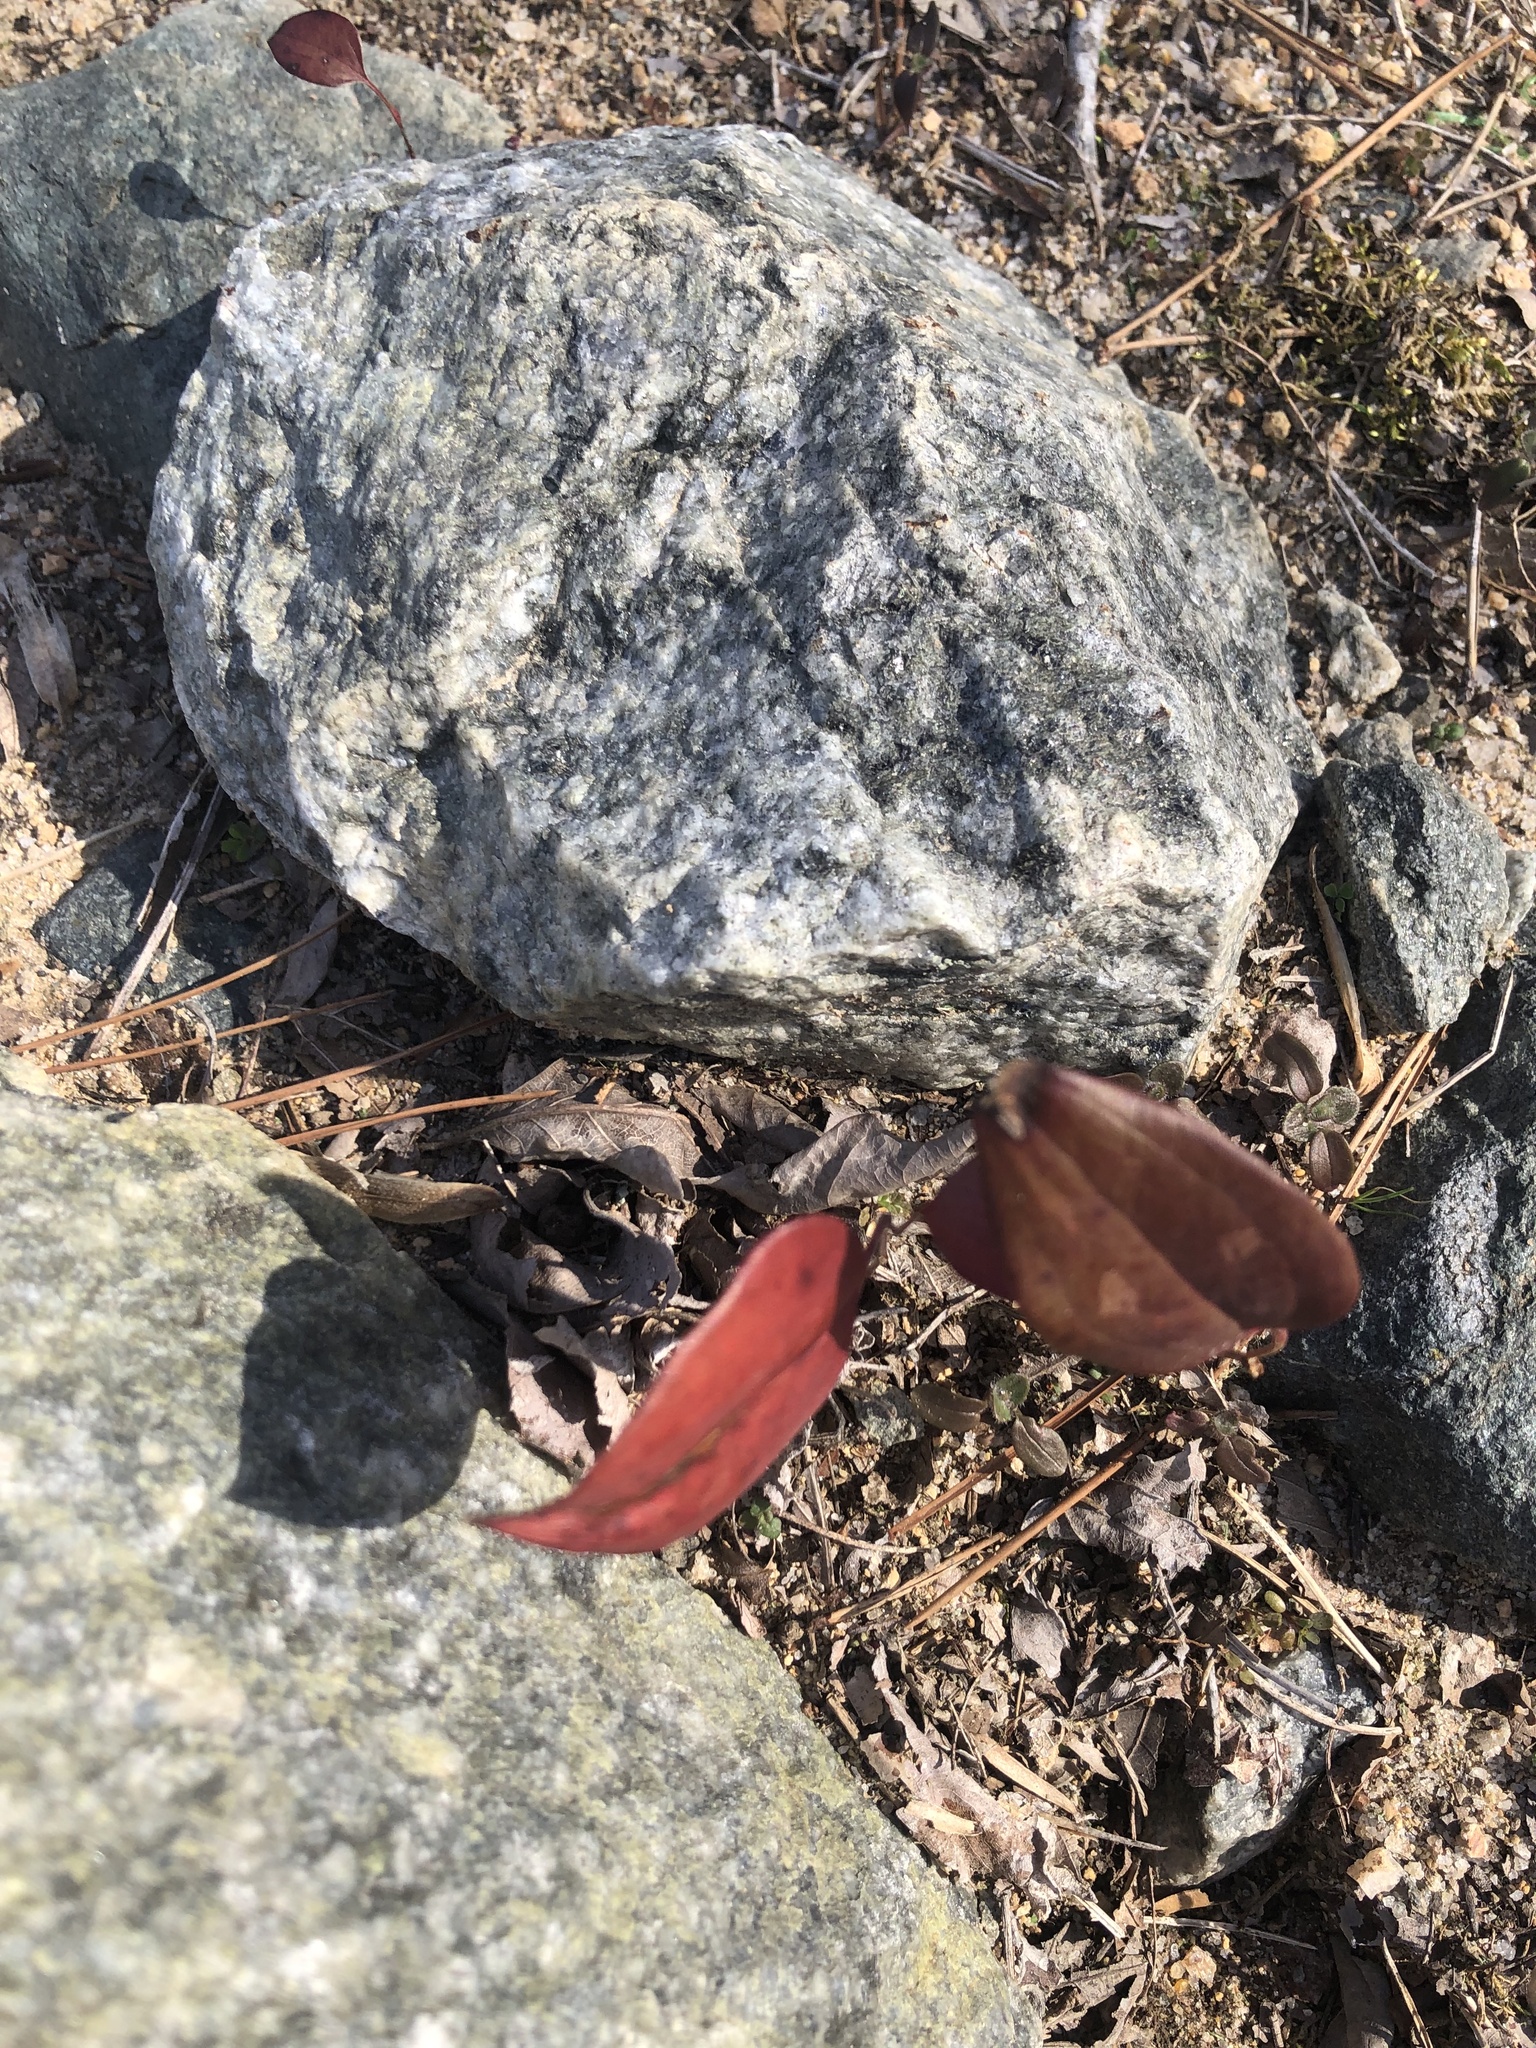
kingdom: Plantae
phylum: Tracheophyta
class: Liliopsida
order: Liliales
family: Smilacaceae
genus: Smilax
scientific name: Smilax glauca
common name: Cat greenbrier
